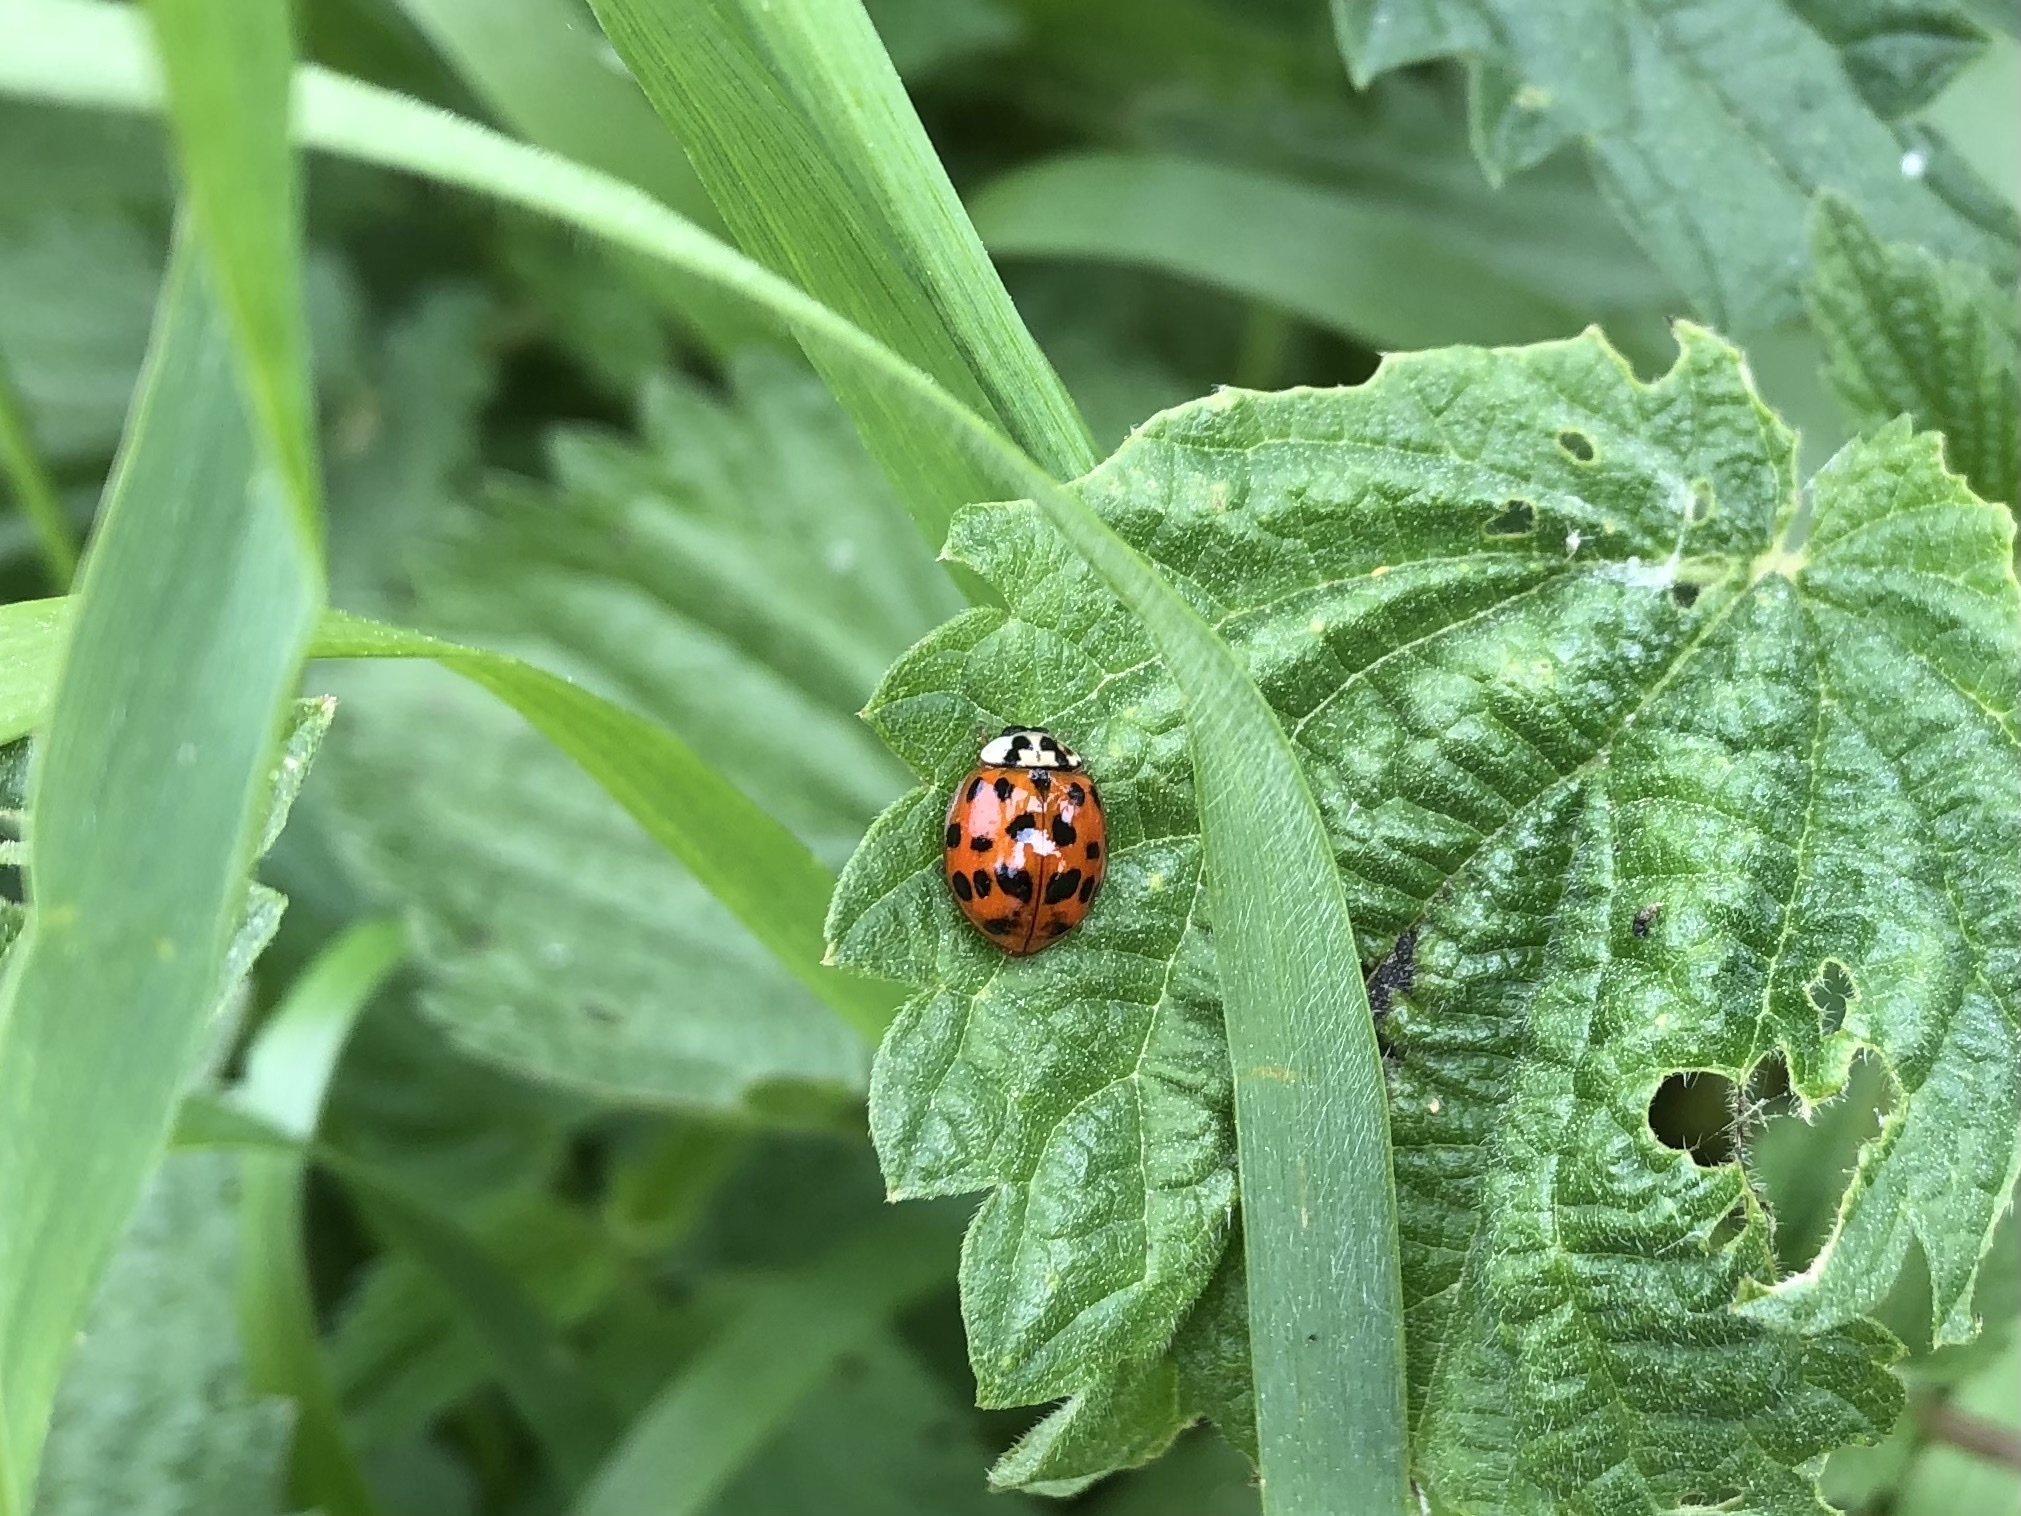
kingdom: Animalia
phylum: Arthropoda
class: Insecta
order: Coleoptera
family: Coccinellidae
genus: Harmonia
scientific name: Harmonia axyridis
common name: Harlequin ladybird
